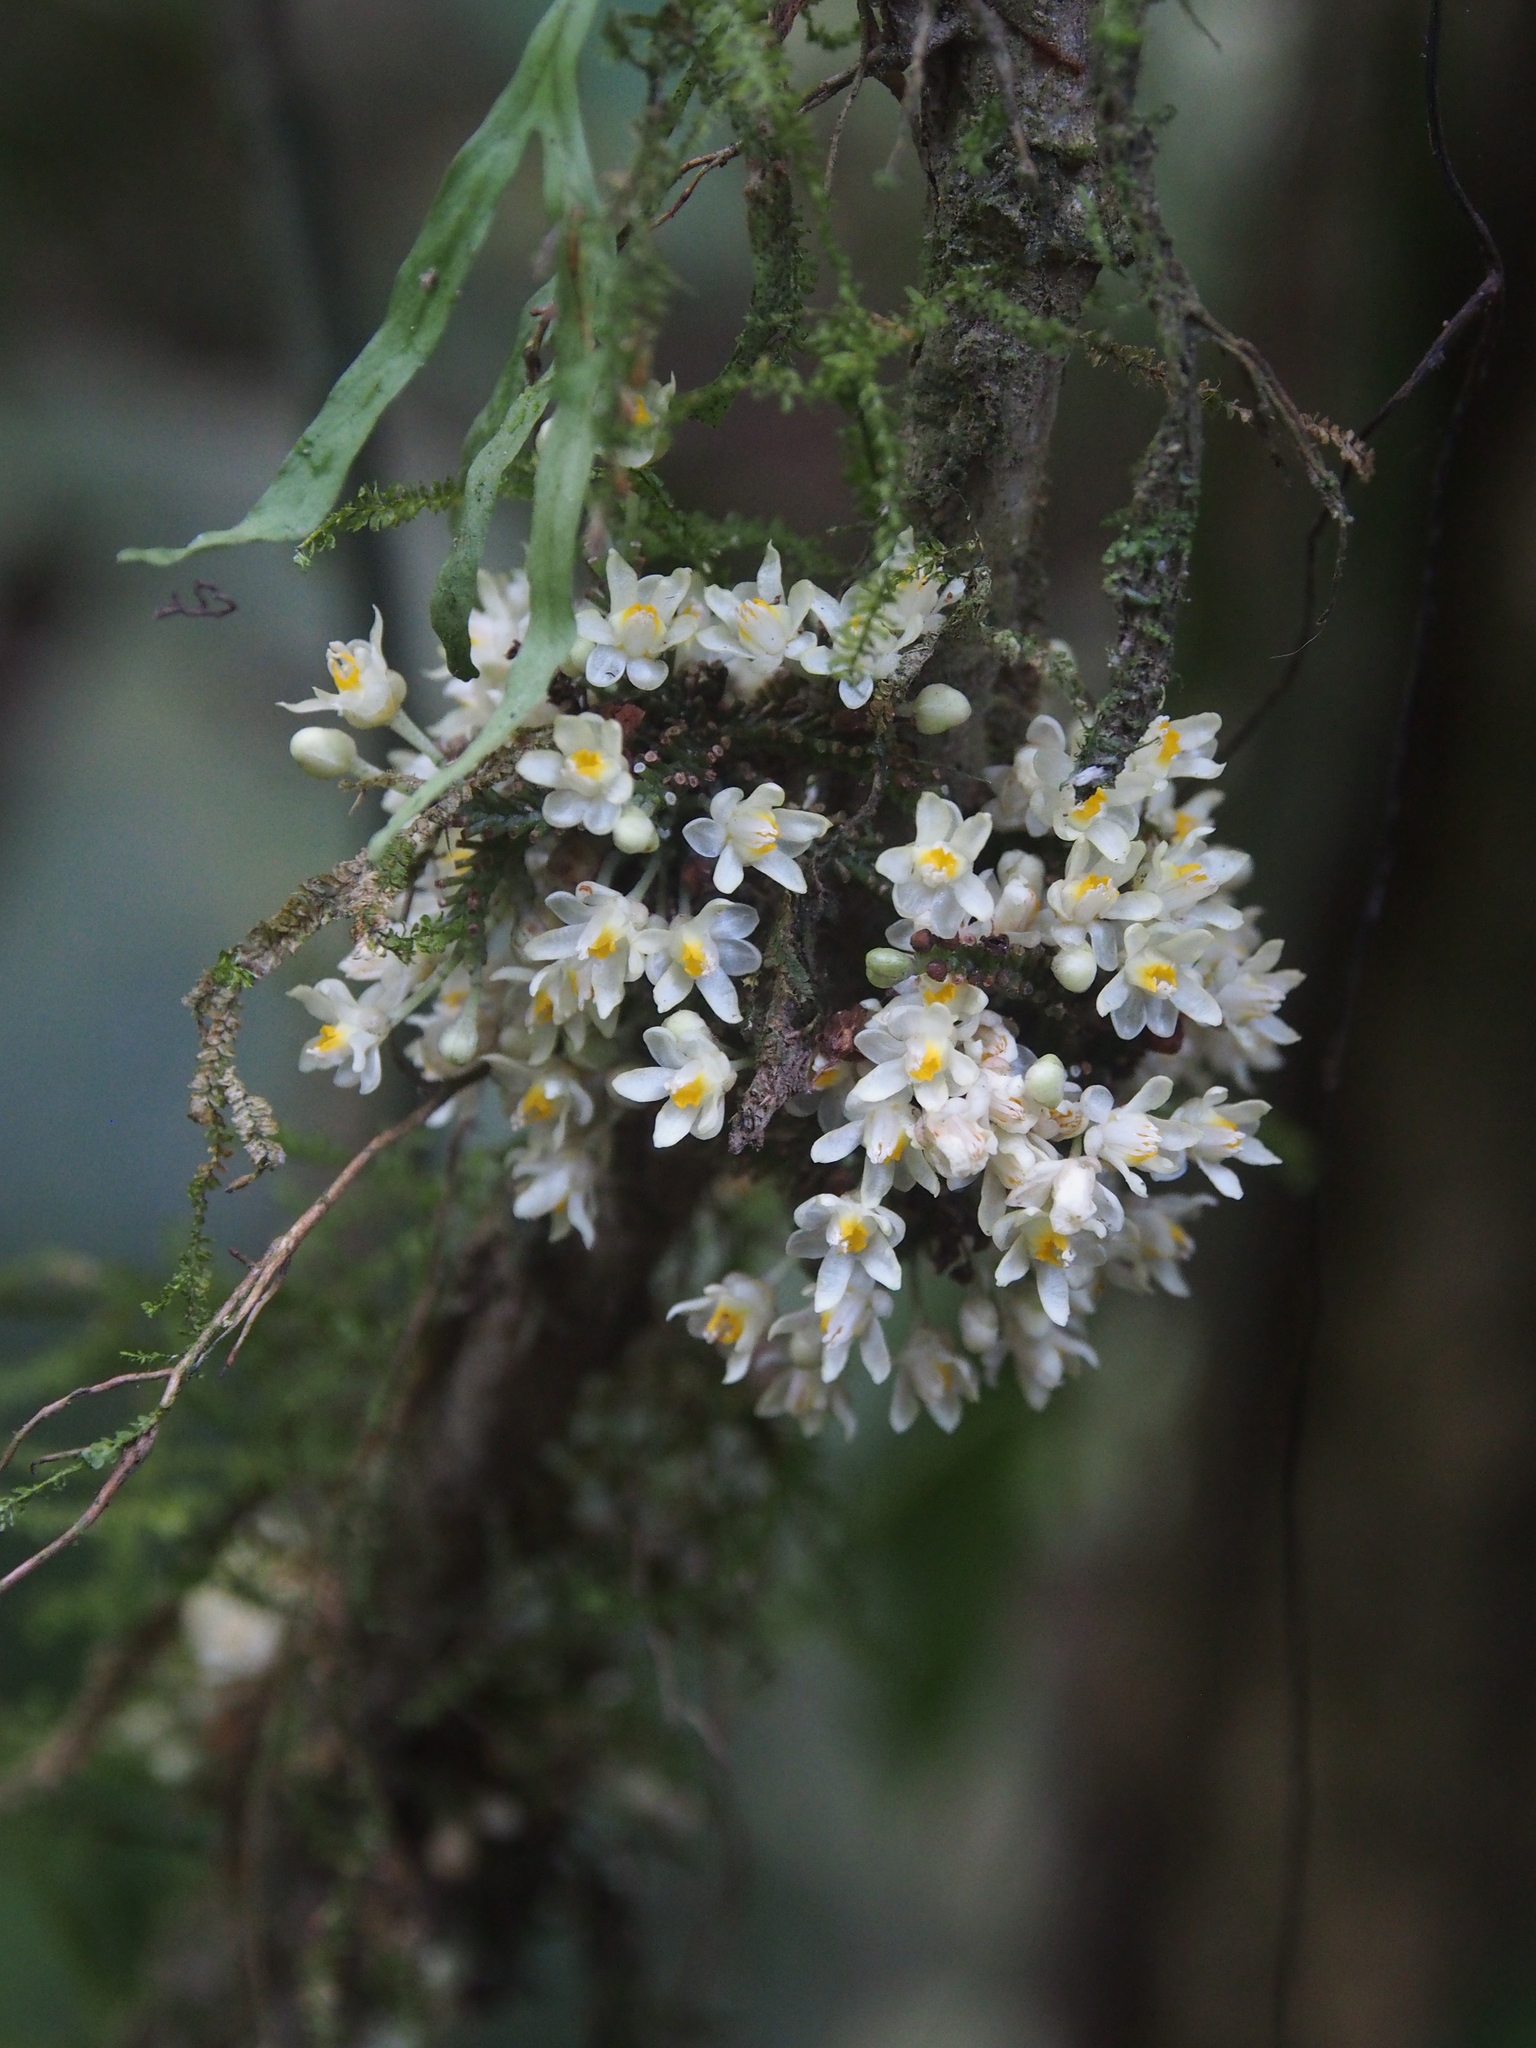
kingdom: Plantae
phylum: Tracheophyta
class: Magnoliopsida
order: Sapindales
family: Sapindaceae
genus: Paullinia
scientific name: Paullinia serjaniifolia
